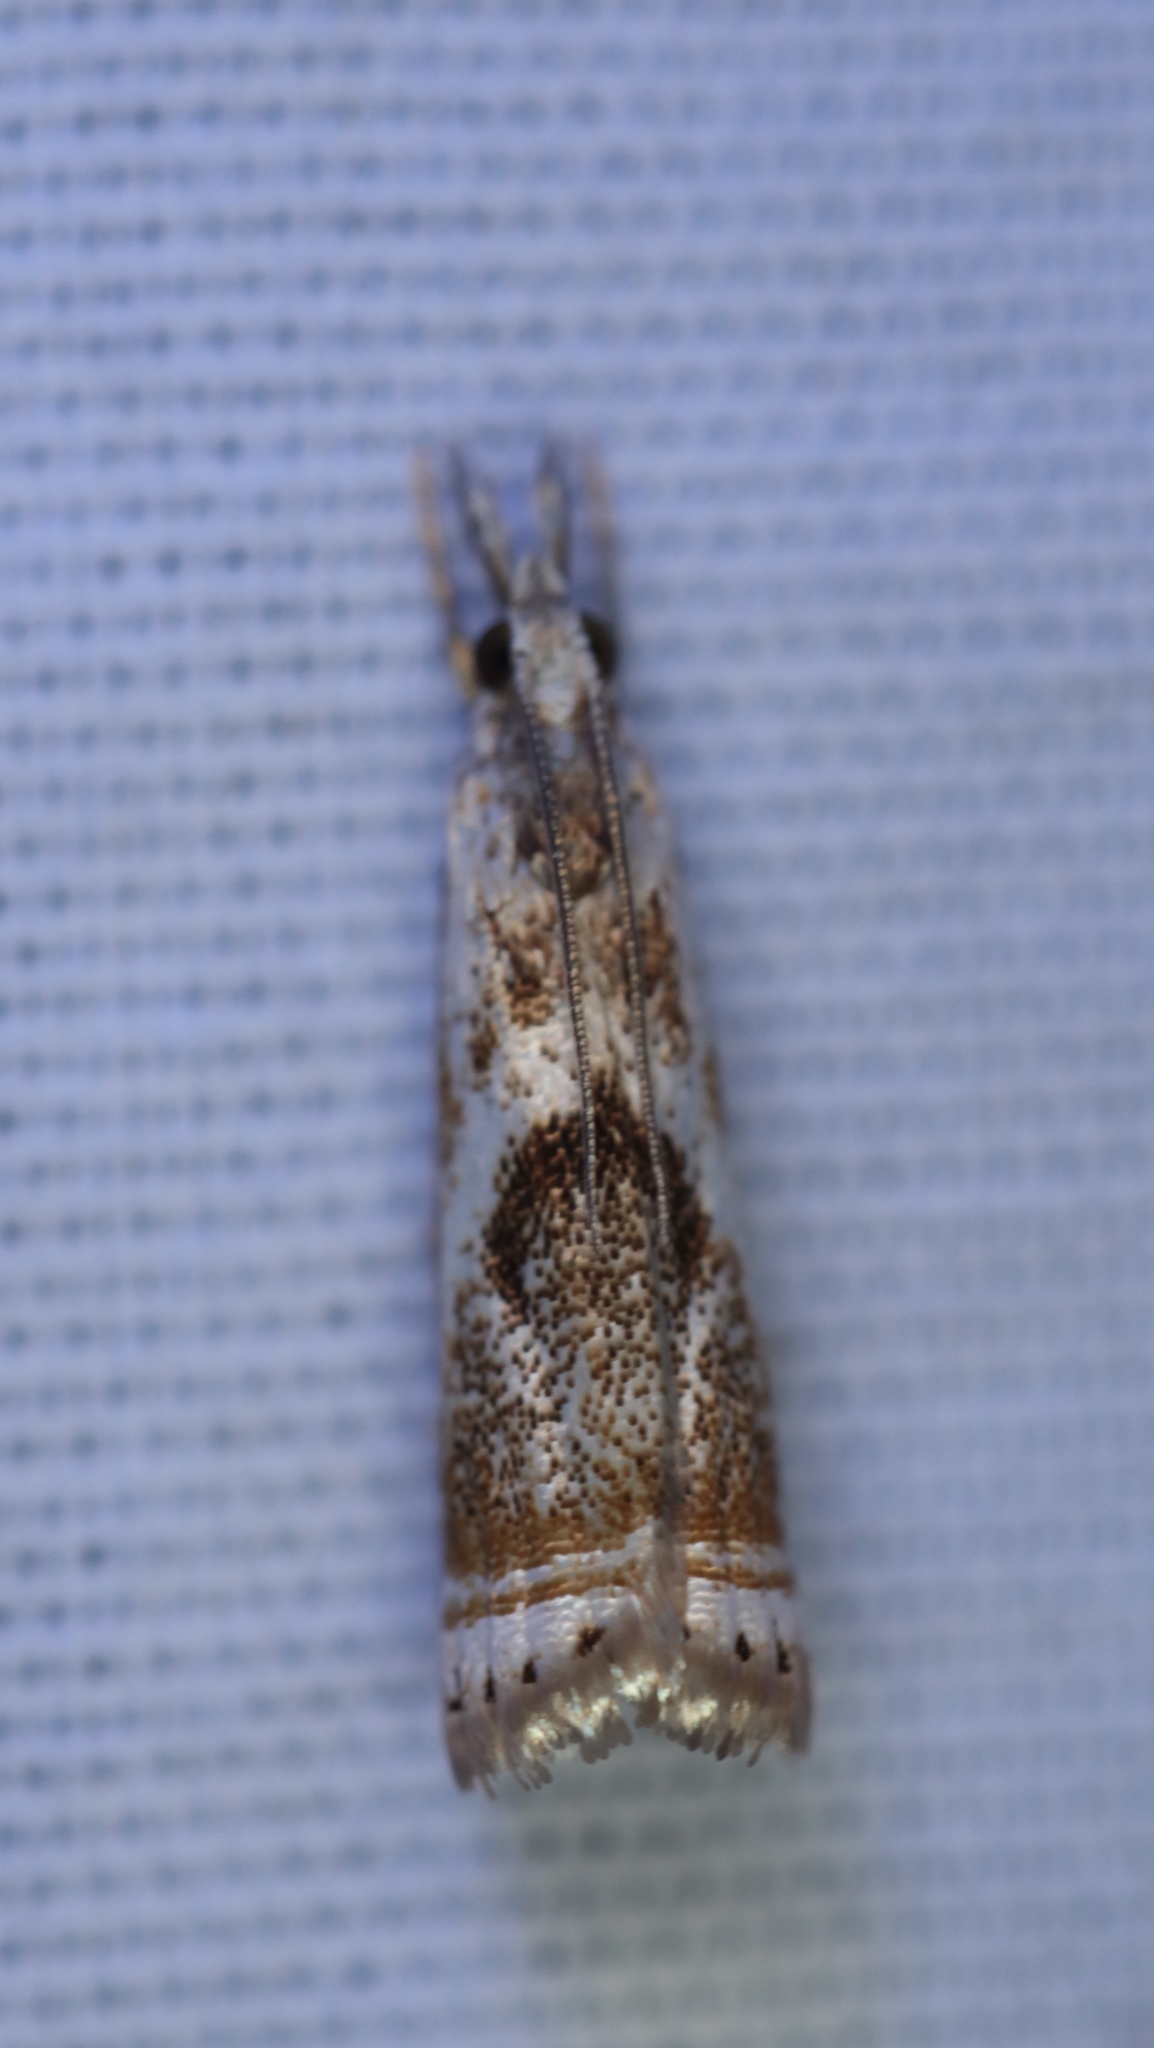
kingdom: Animalia
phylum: Arthropoda
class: Insecta
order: Lepidoptera
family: Crambidae
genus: Microcrambus
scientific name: Microcrambus elegans
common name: Elegant grass-veneer
